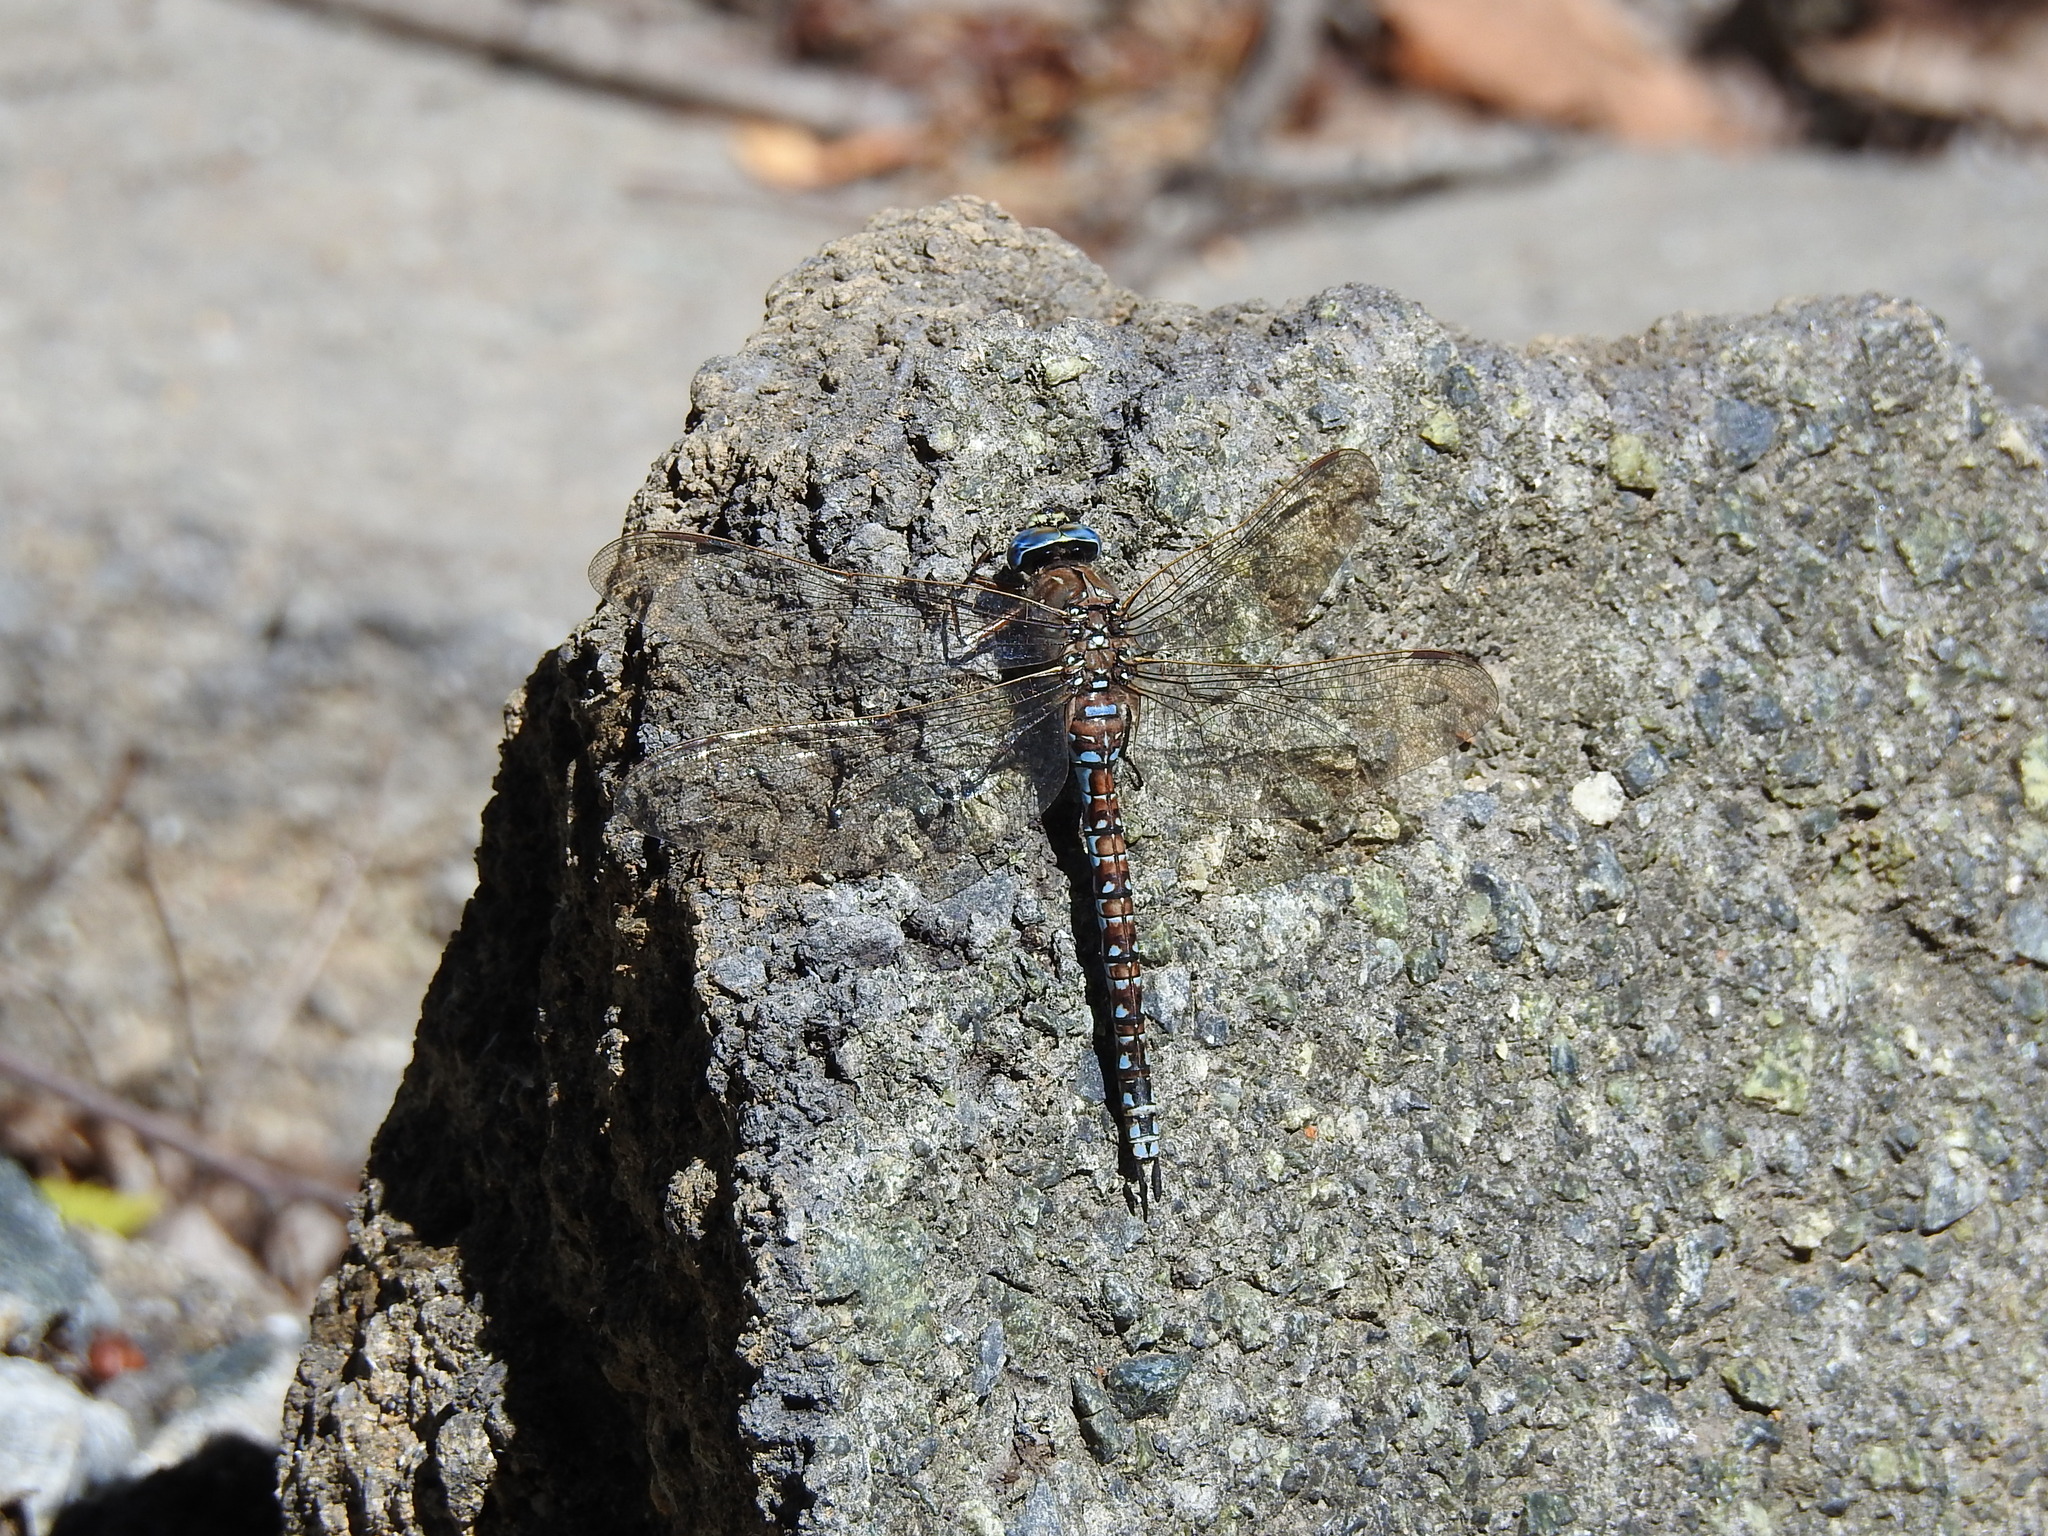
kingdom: Animalia
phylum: Arthropoda
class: Insecta
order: Odonata
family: Aeshnidae
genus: Aeshna
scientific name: Aeshna caerulea
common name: Azure hawker
